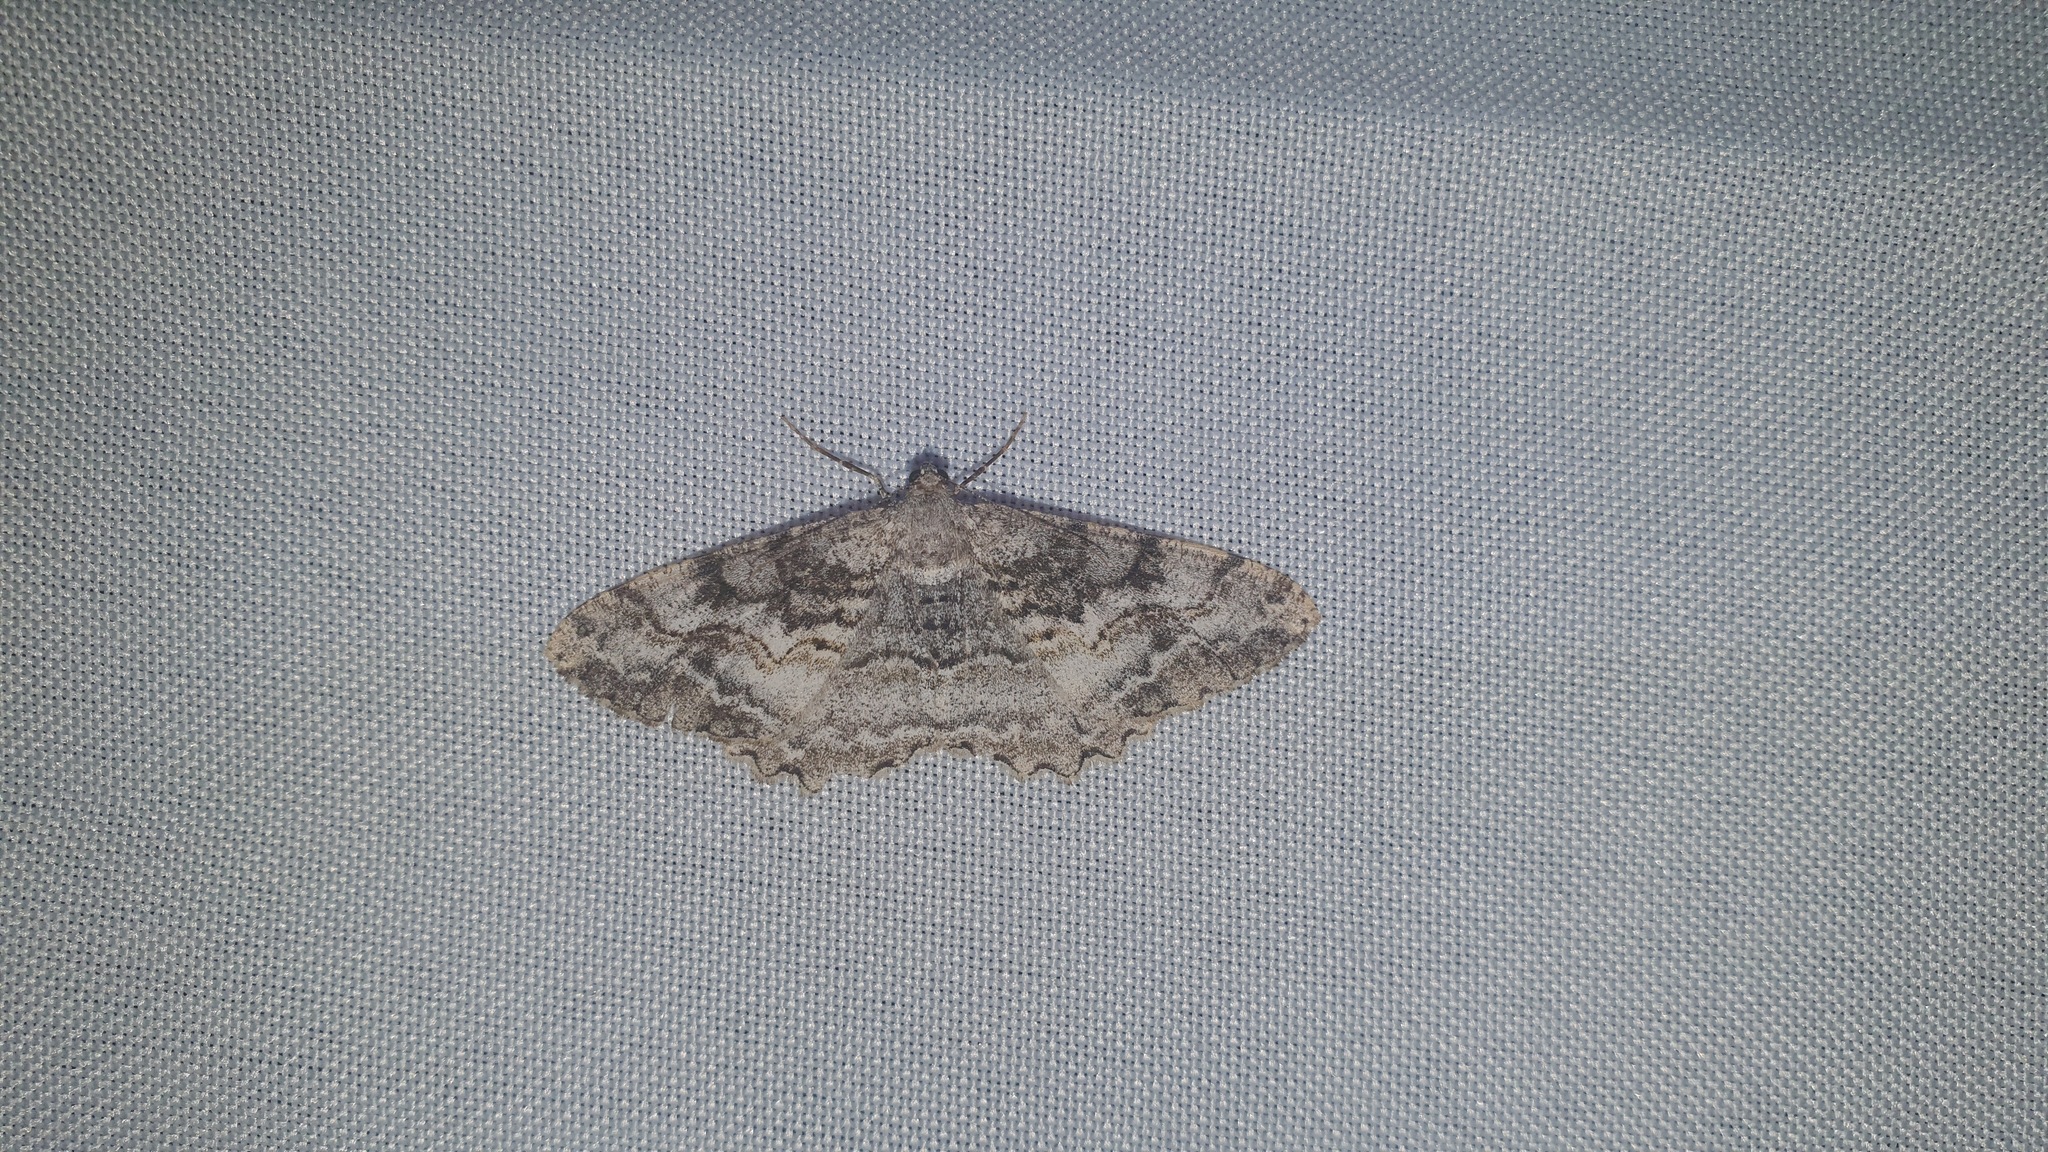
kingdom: Animalia
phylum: Arthropoda
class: Insecta
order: Lepidoptera
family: Geometridae
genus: Alcis
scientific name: Alcis repandata
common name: Mottled beauty
